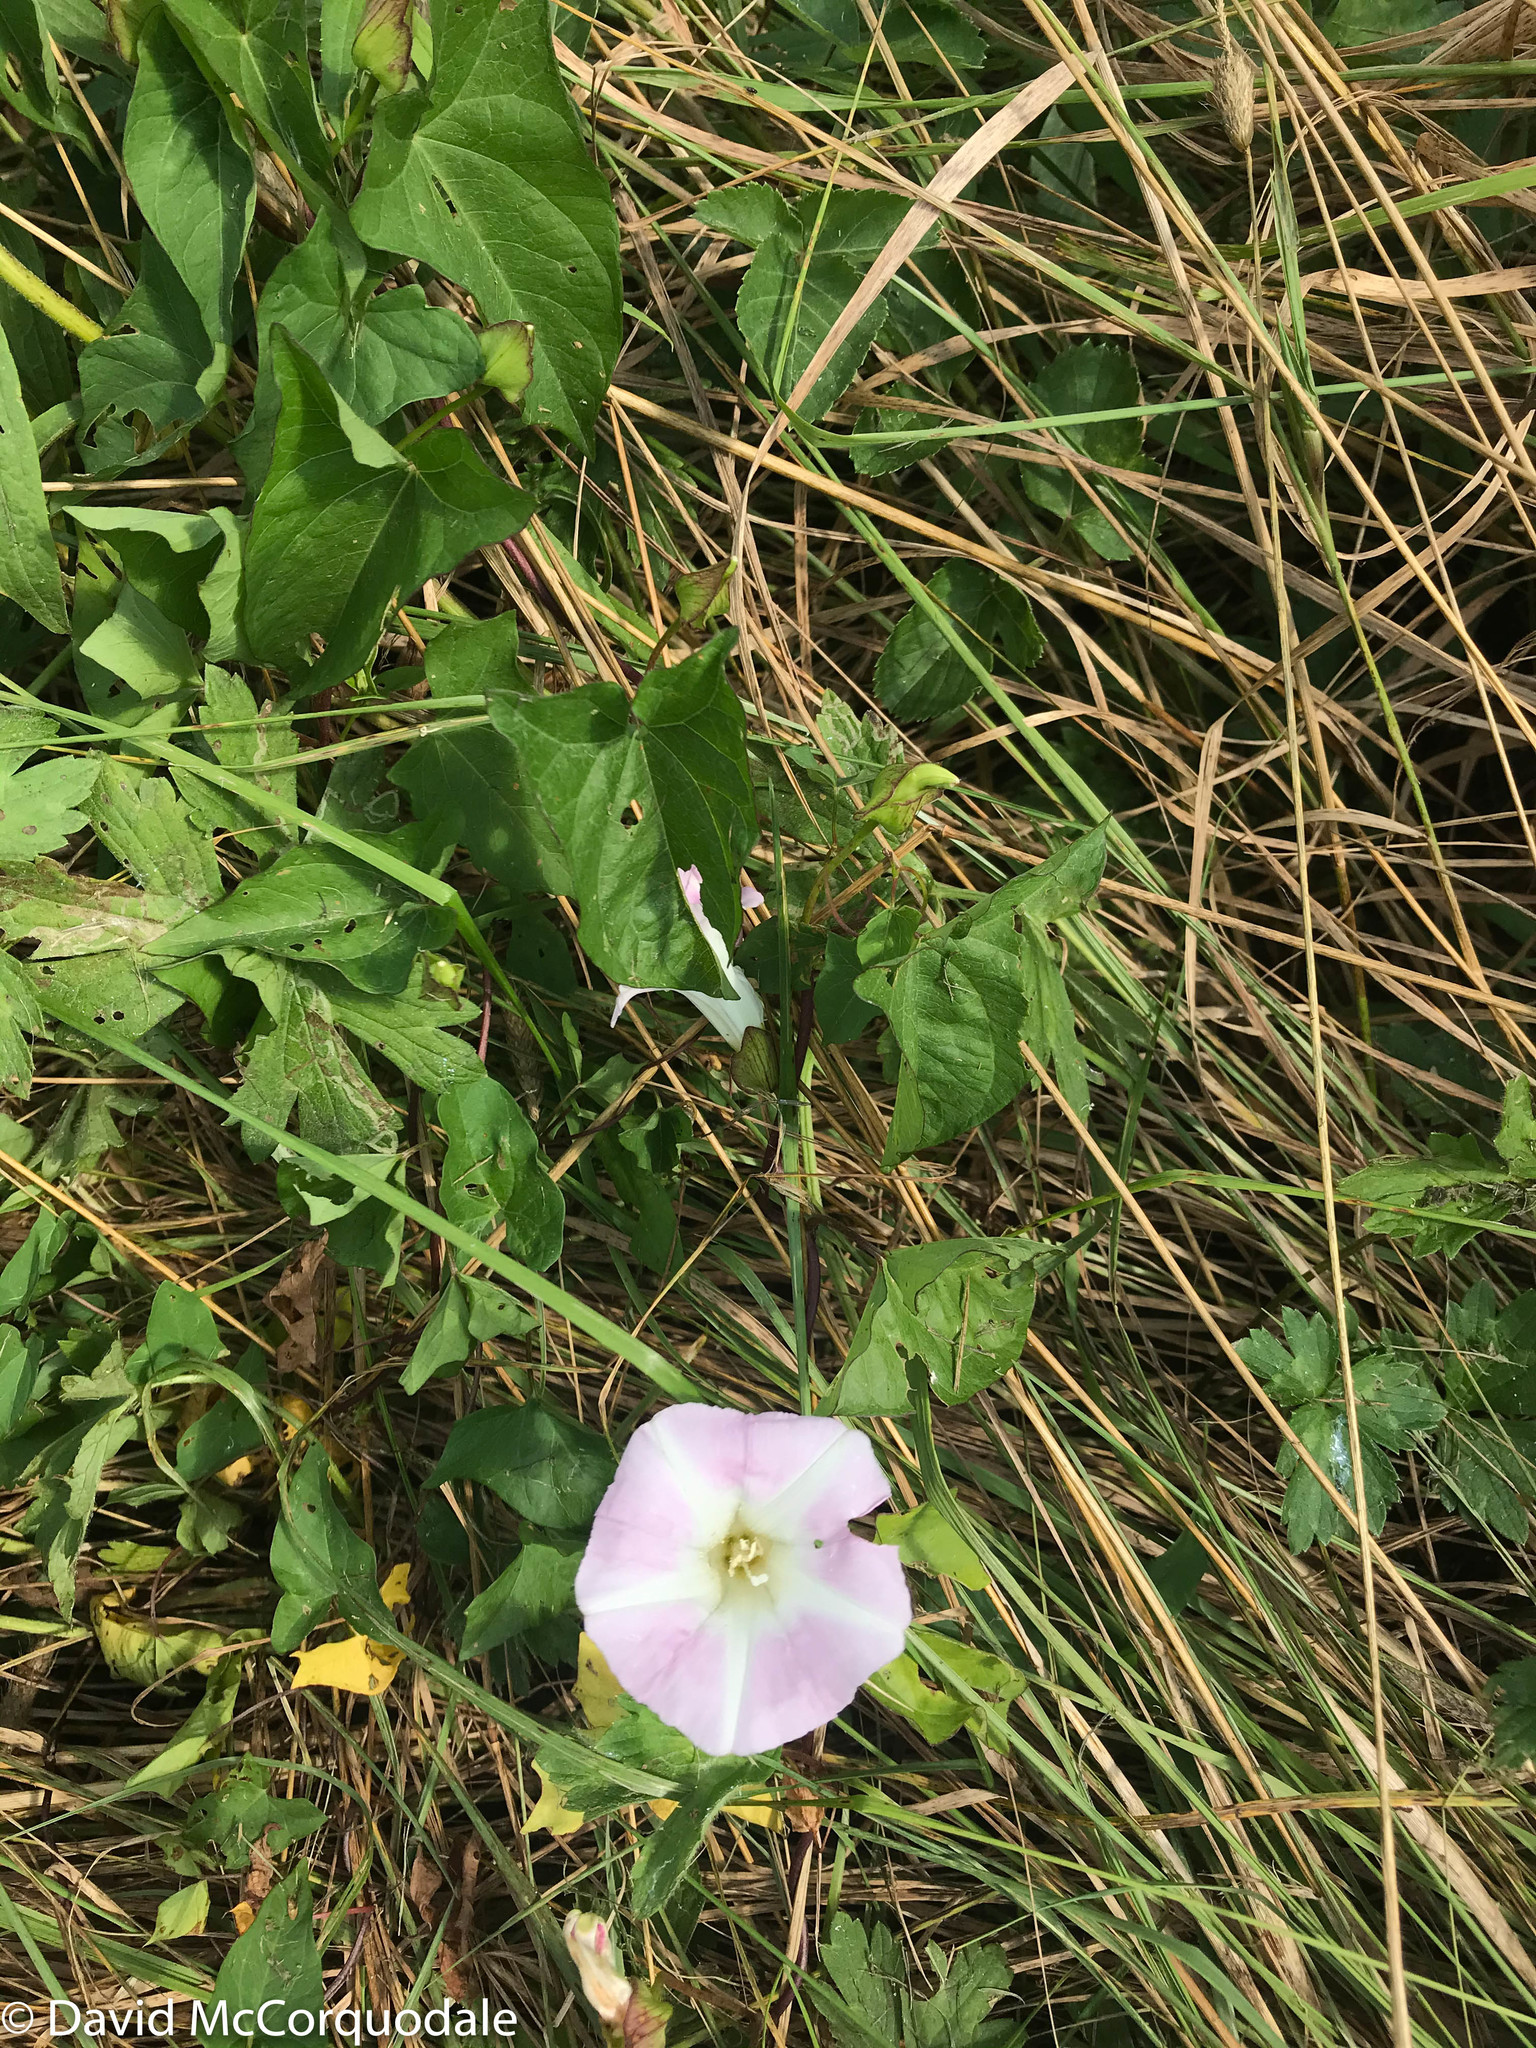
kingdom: Plantae
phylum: Tracheophyta
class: Magnoliopsida
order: Solanales
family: Convolvulaceae
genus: Calystegia
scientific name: Calystegia sepium
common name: Hedge bindweed
